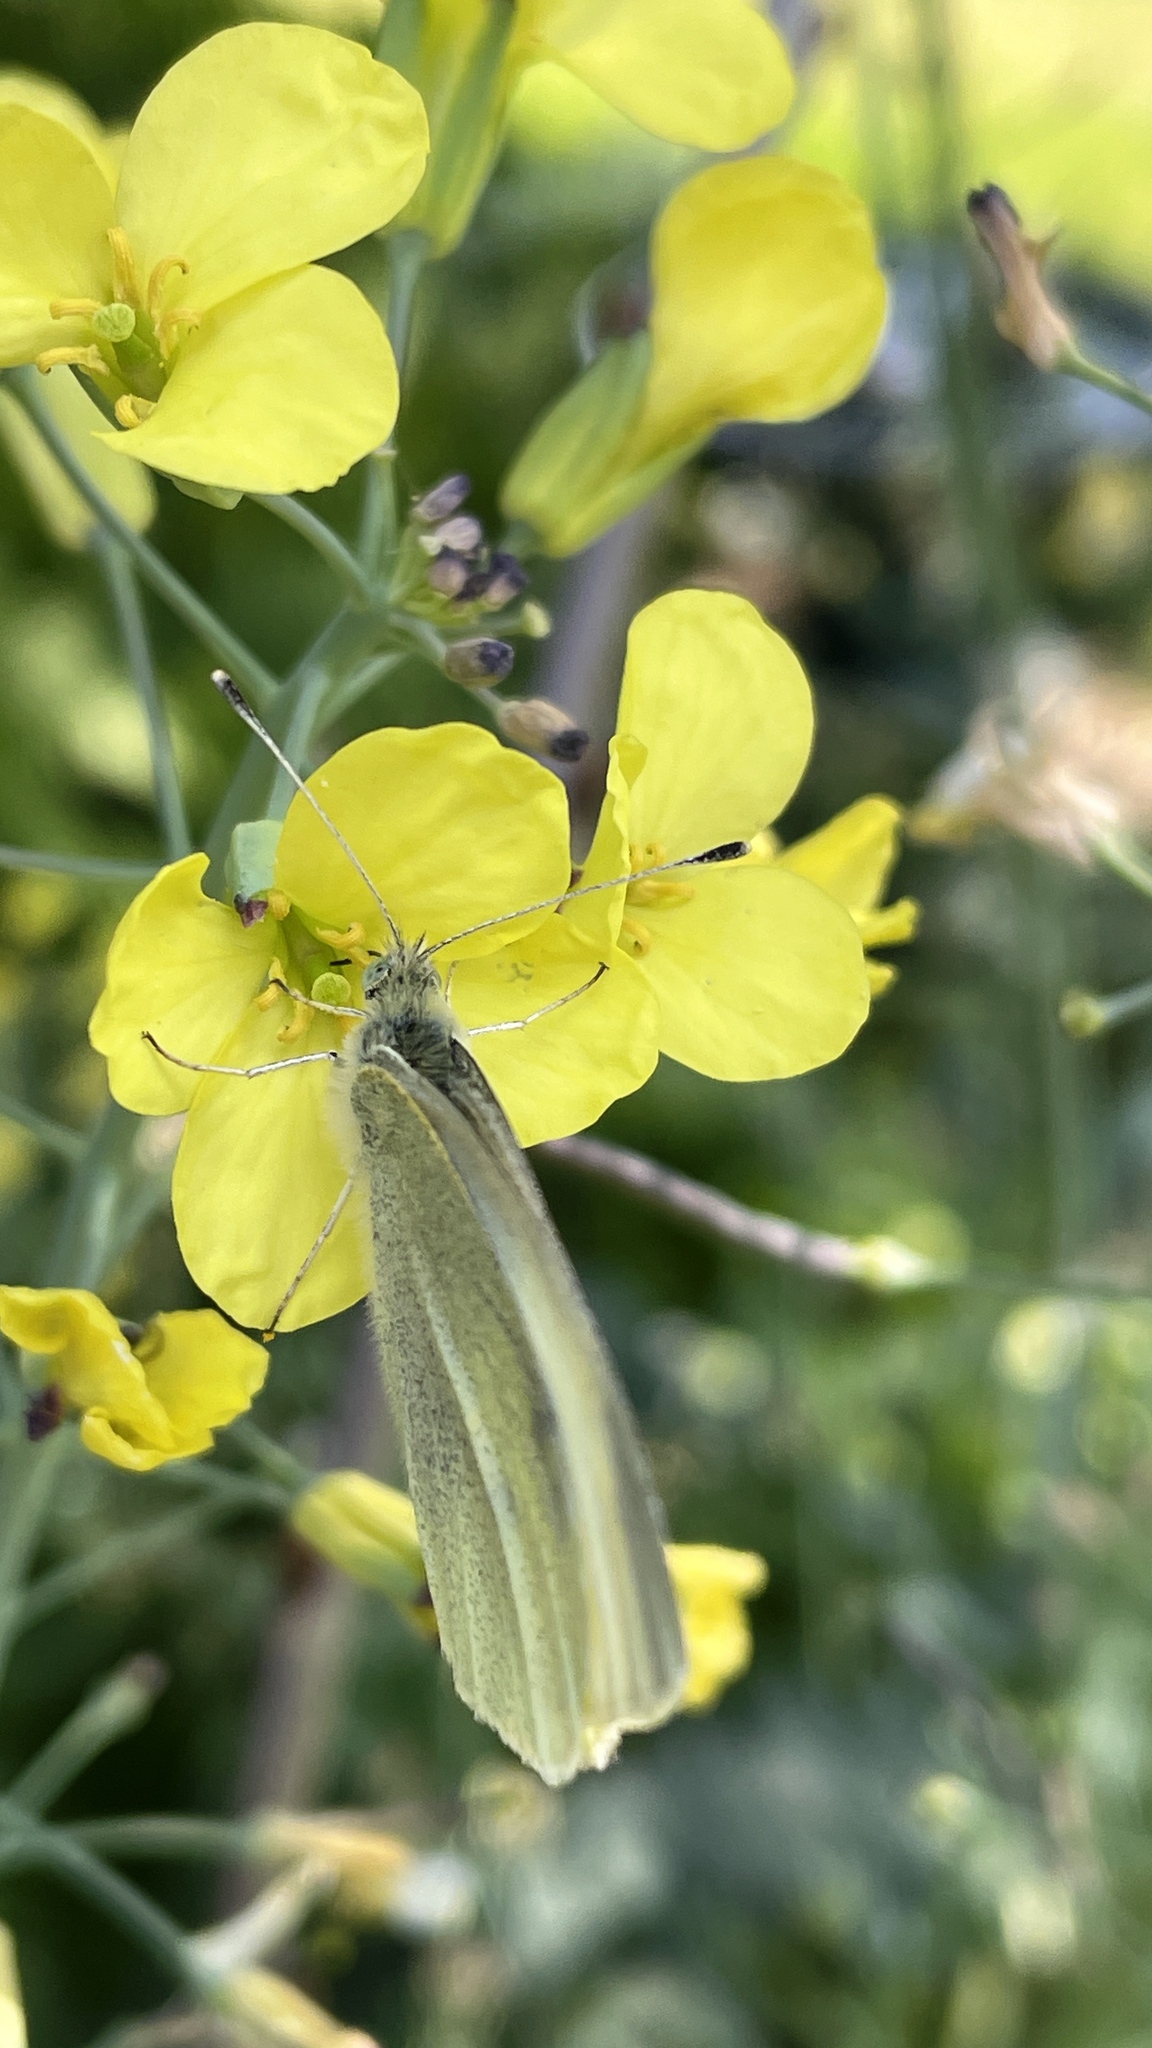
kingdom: Animalia
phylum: Arthropoda
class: Insecta
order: Lepidoptera
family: Pieridae
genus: Pieris
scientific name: Pieris rapae
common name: Small white
